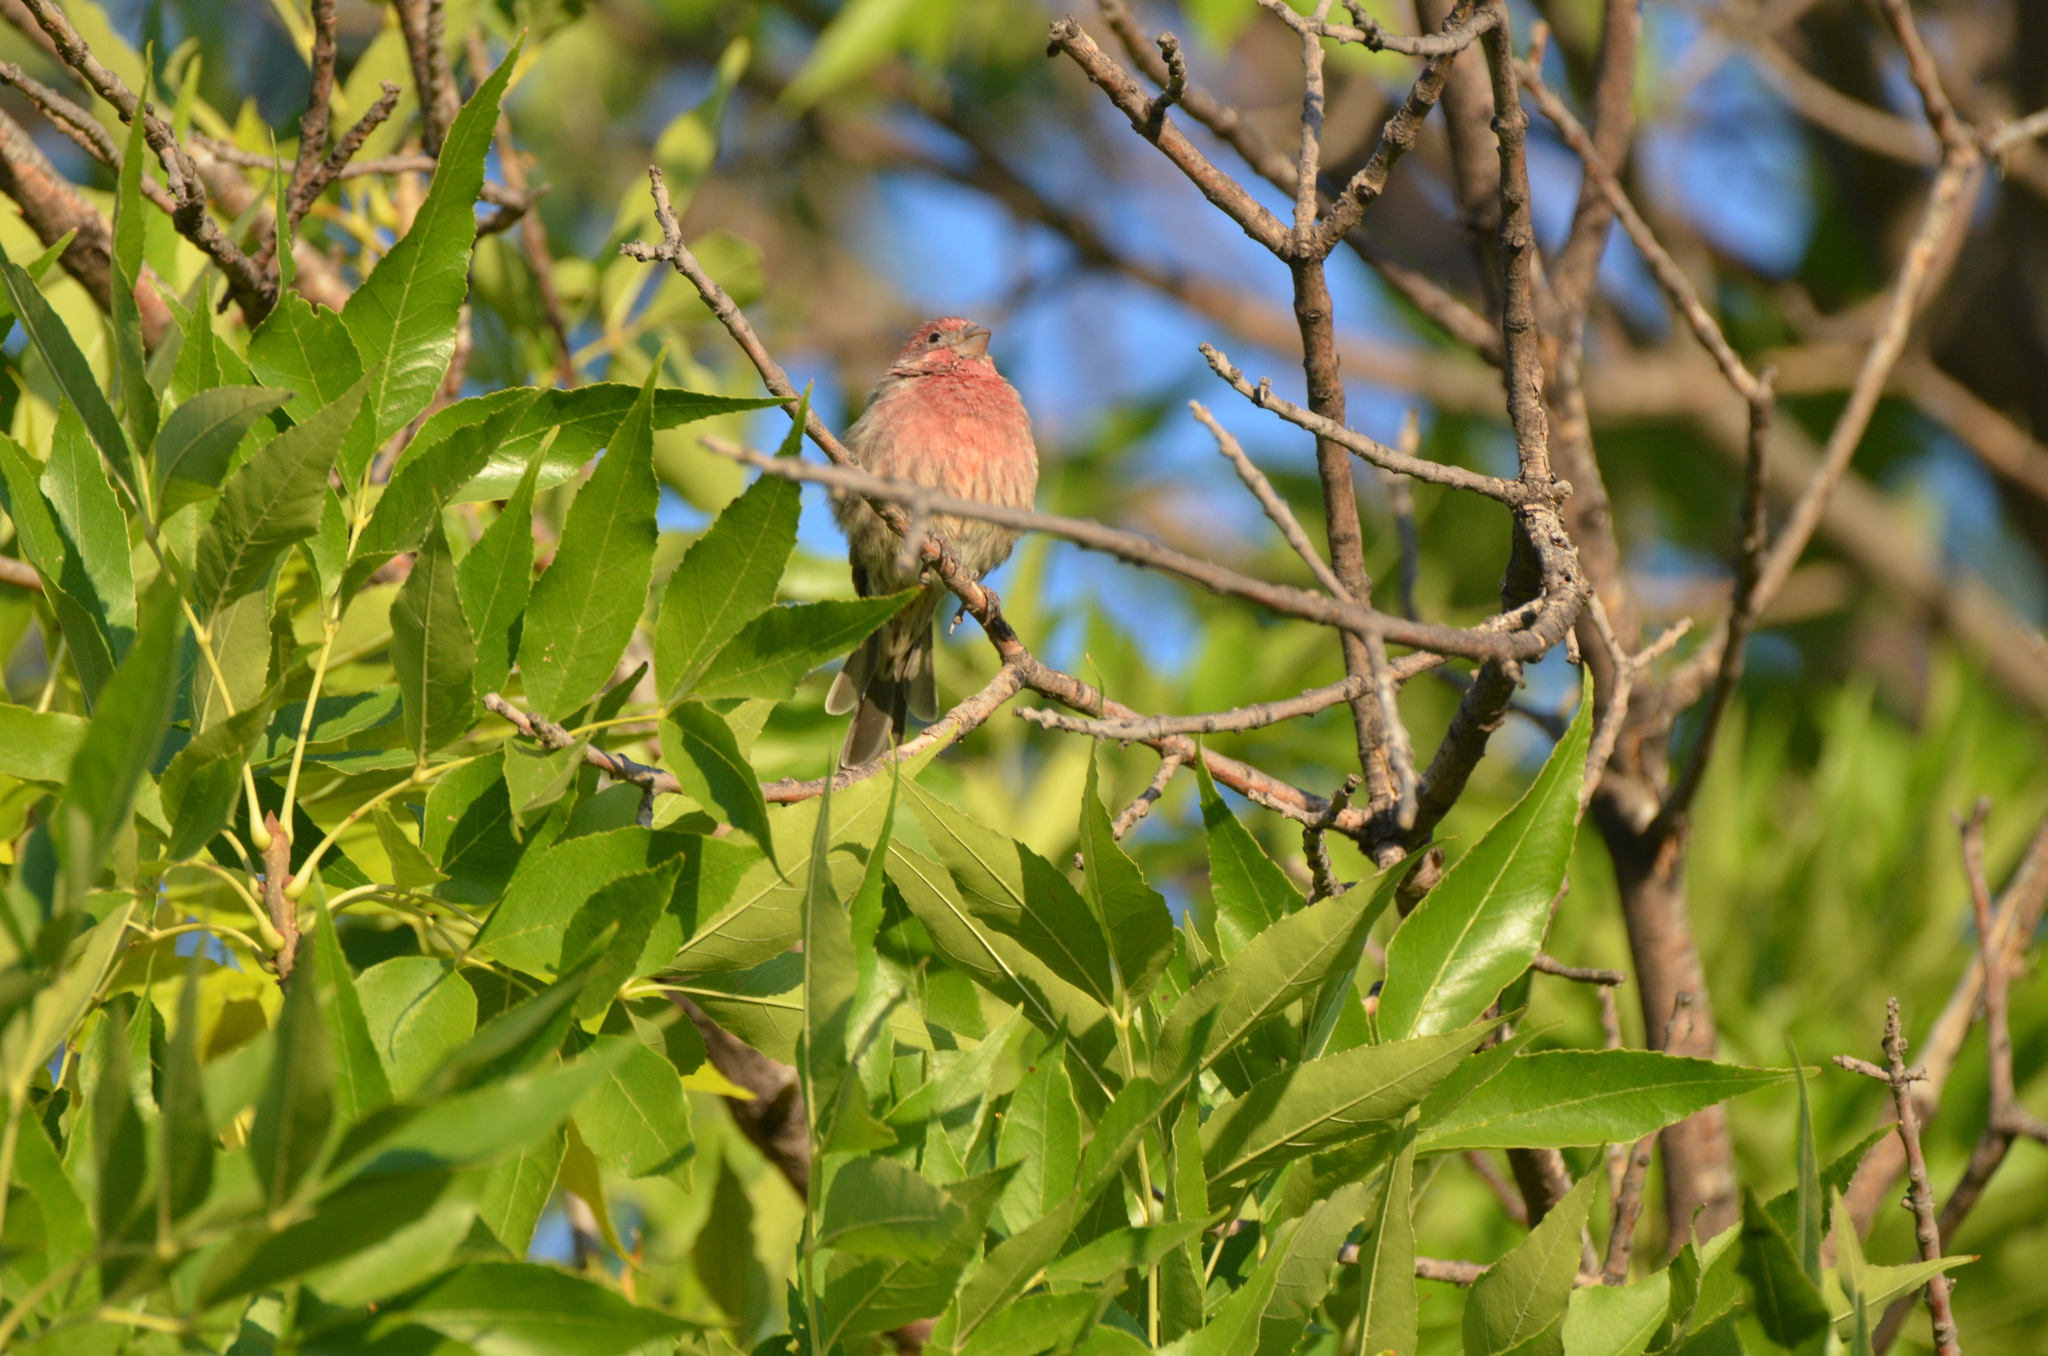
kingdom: Animalia
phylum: Chordata
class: Aves
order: Passeriformes
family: Fringillidae
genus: Haemorhous
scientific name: Haemorhous mexicanus
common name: House finch
